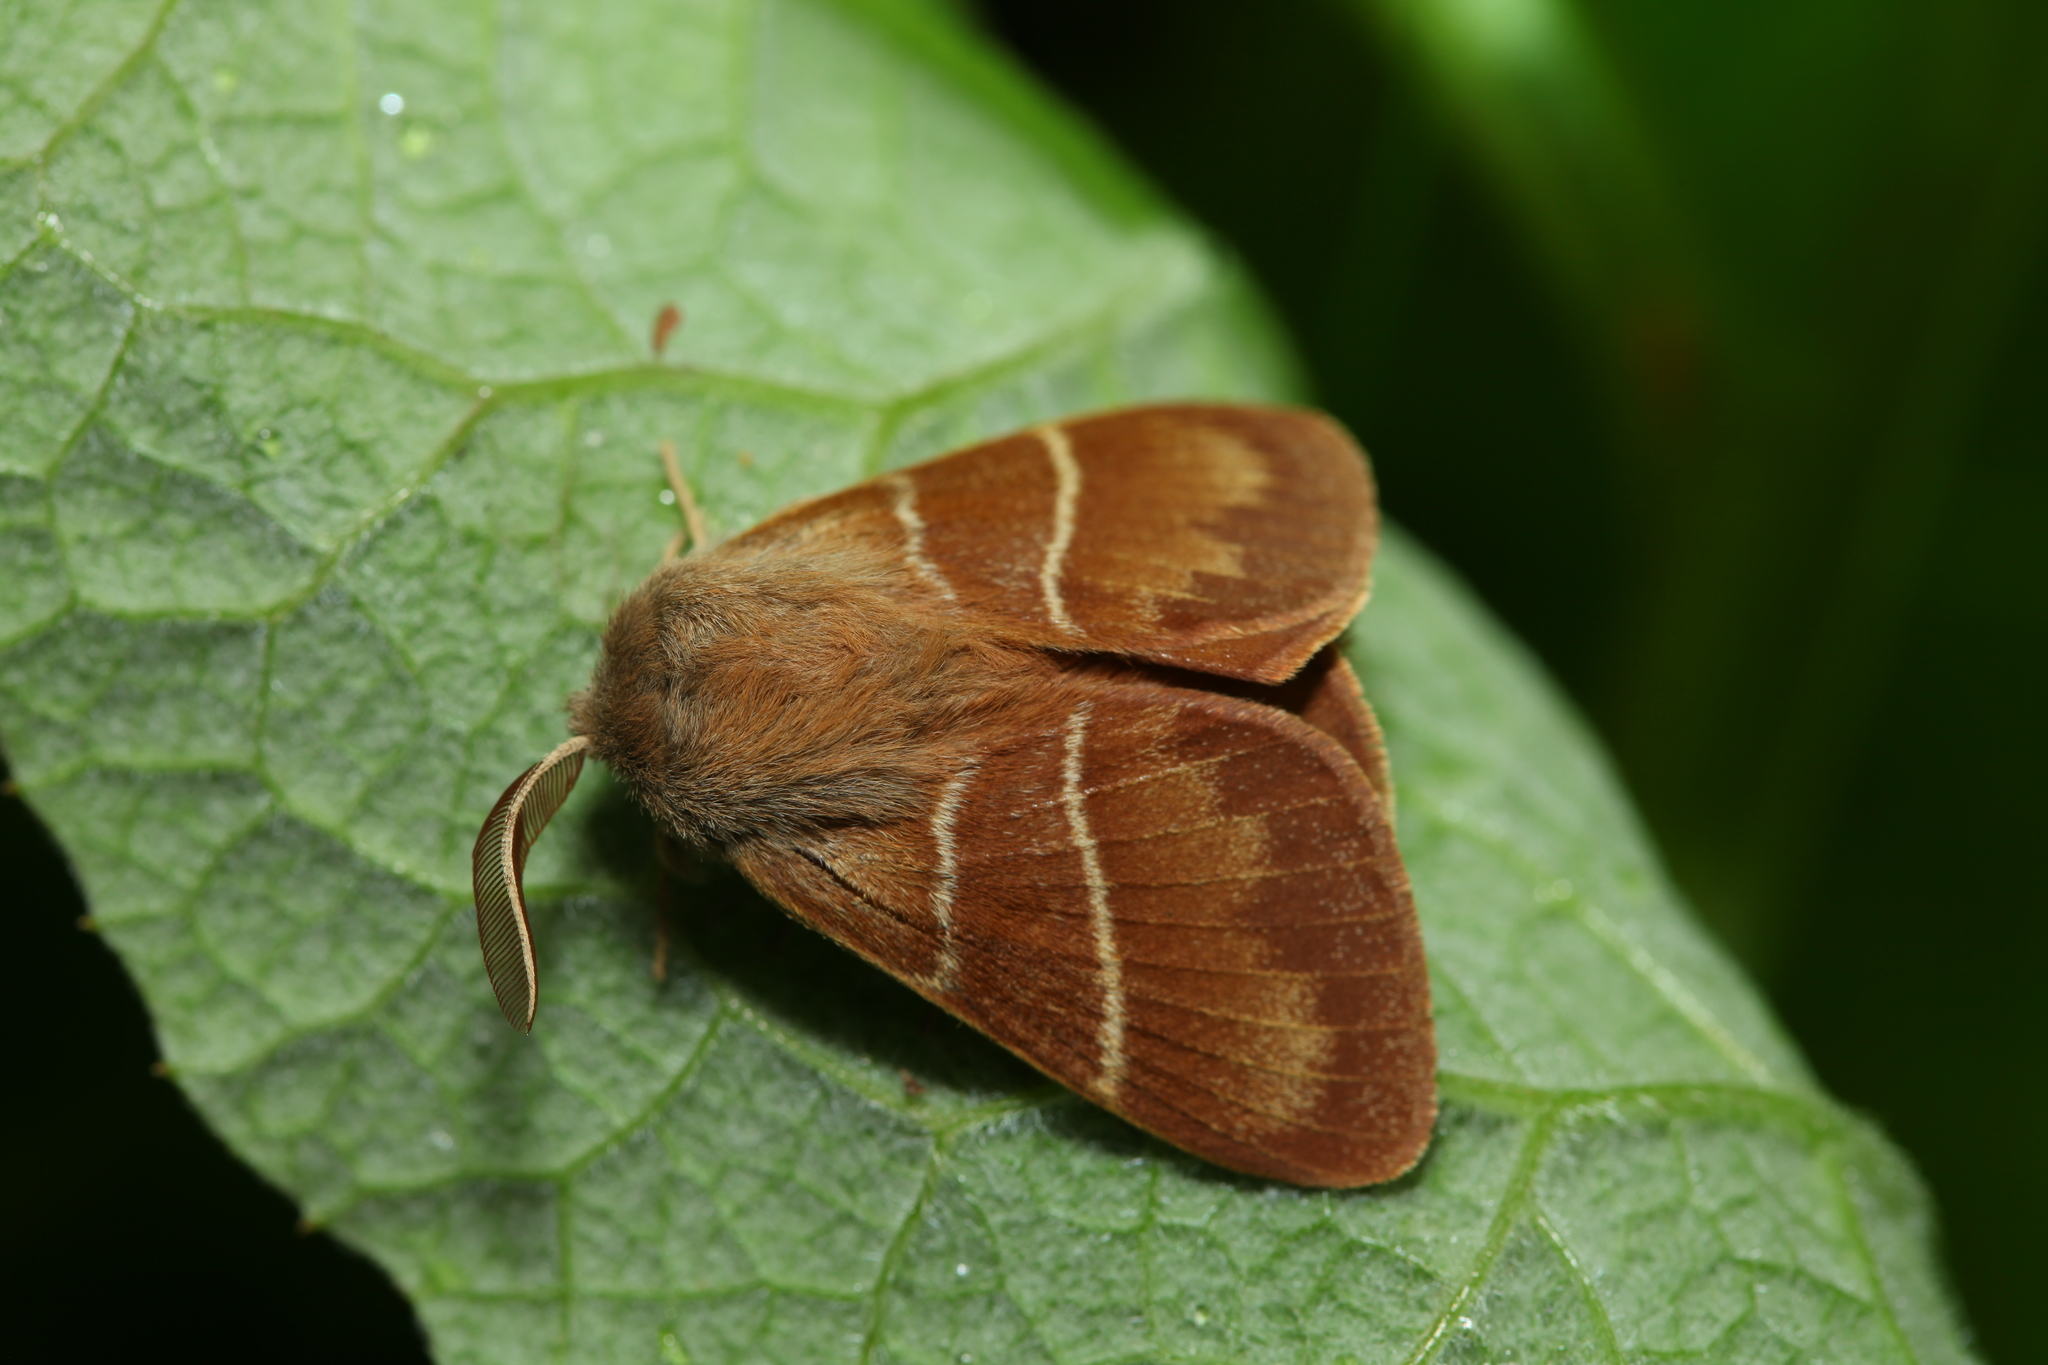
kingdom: Animalia
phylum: Arthropoda
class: Insecta
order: Lepidoptera
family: Lasiocampidae
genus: Macrothylacia
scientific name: Macrothylacia rubi
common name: Fox moth
